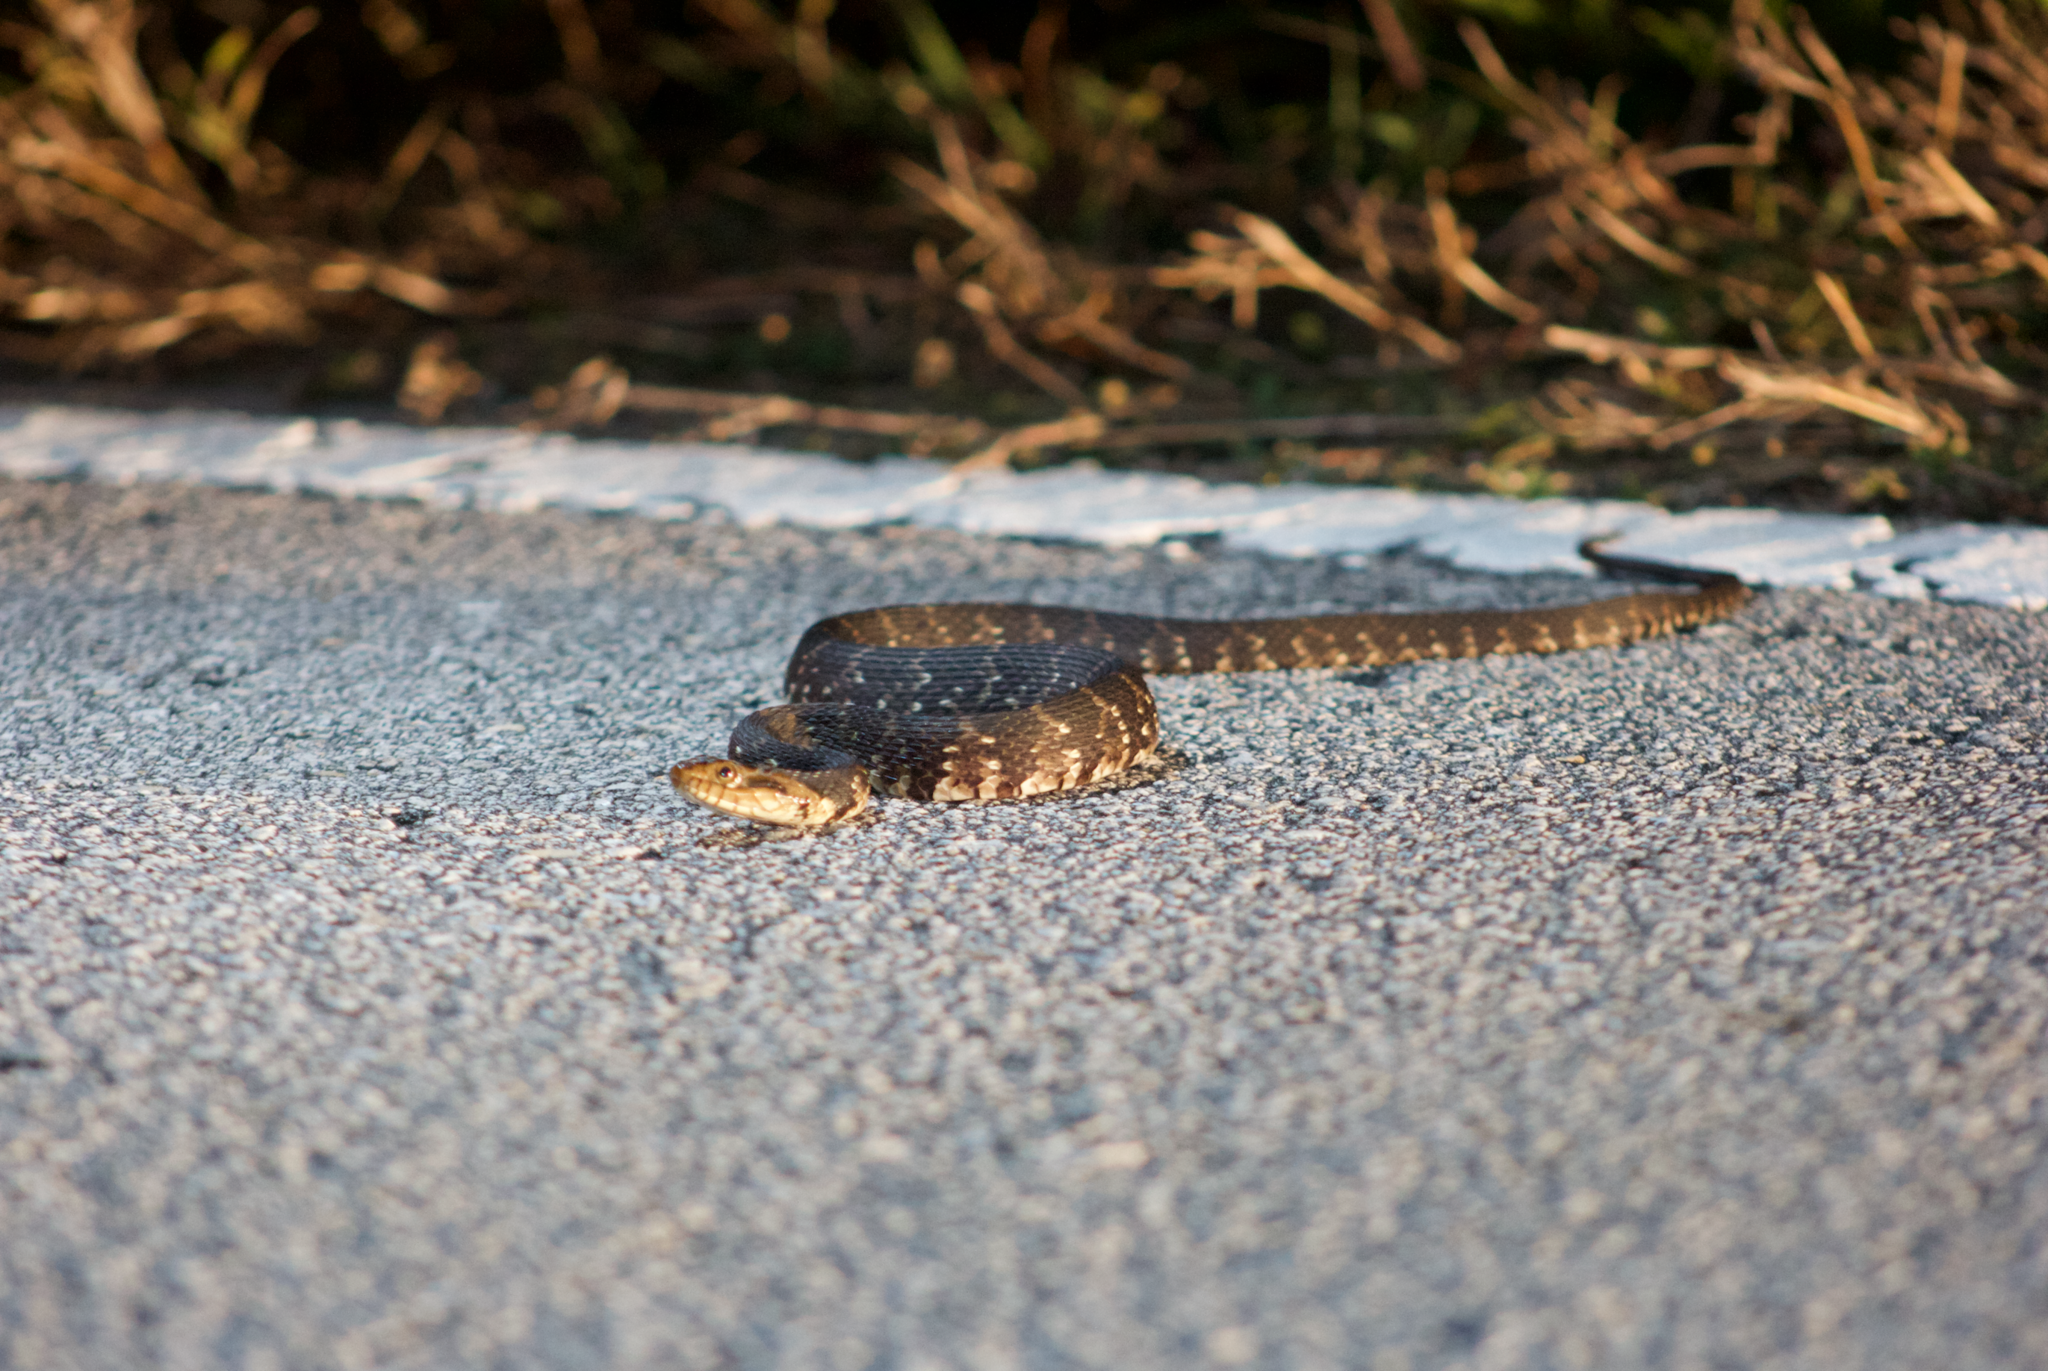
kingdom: Animalia
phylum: Chordata
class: Squamata
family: Colubridae
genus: Nerodia
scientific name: Nerodia fasciata
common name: Southern water snake
